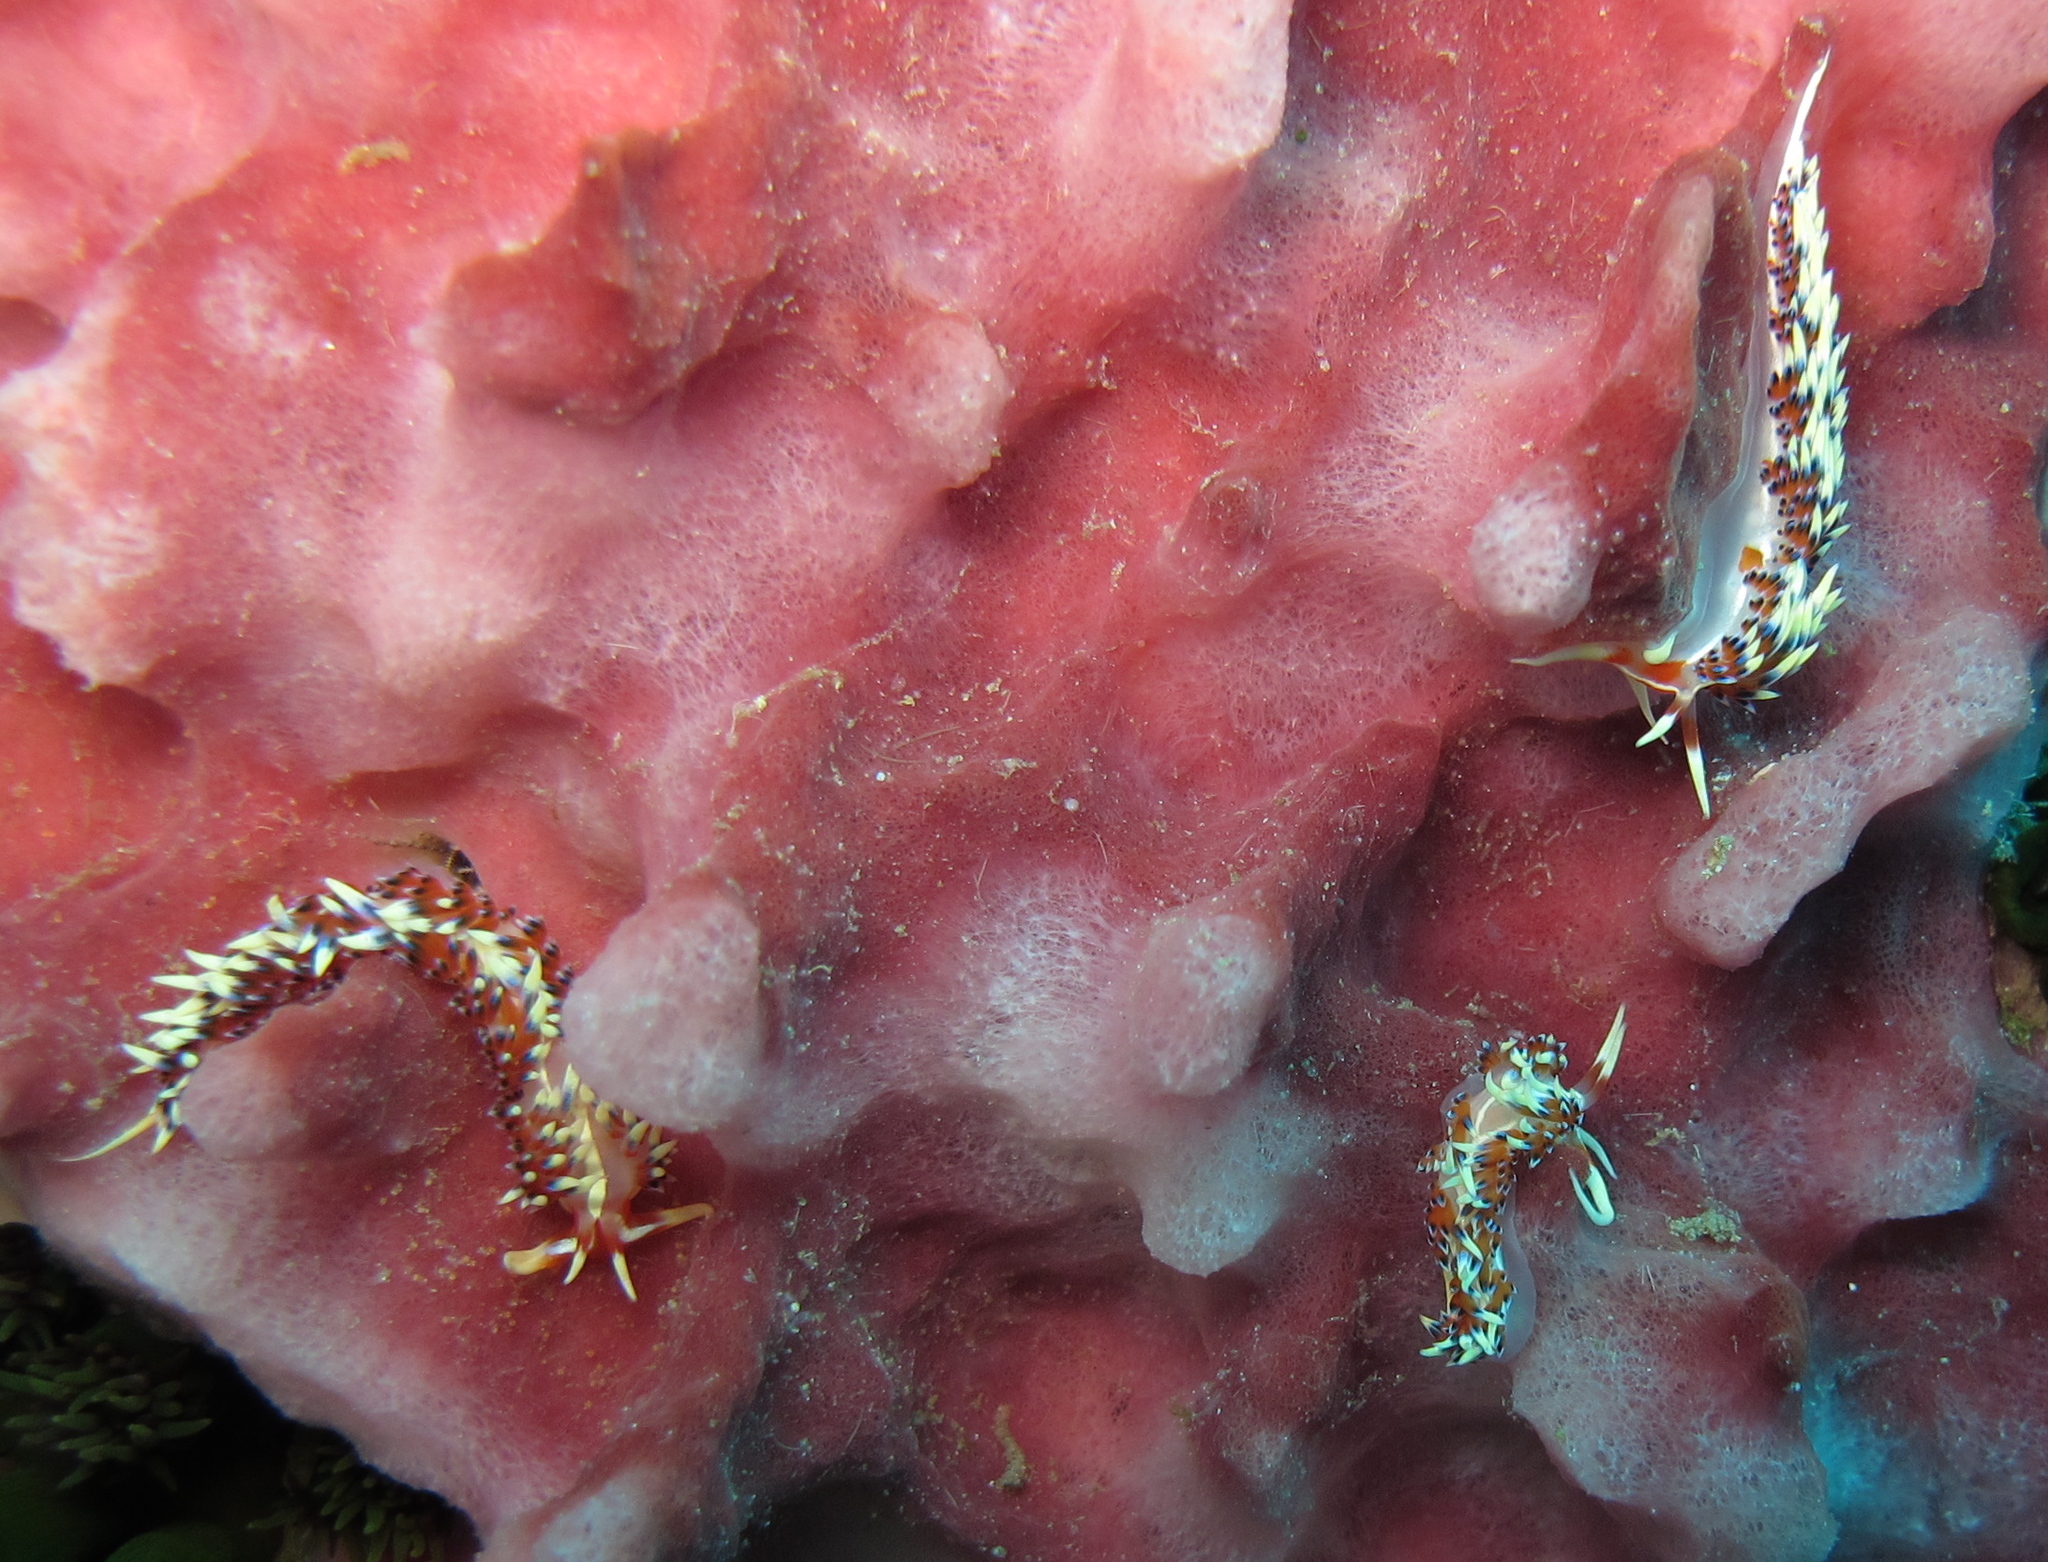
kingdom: Animalia
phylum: Mollusca
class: Gastropoda
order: Nudibranchia
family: Facelinidae
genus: Caloria
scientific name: Caloria indica
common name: Sea slug
